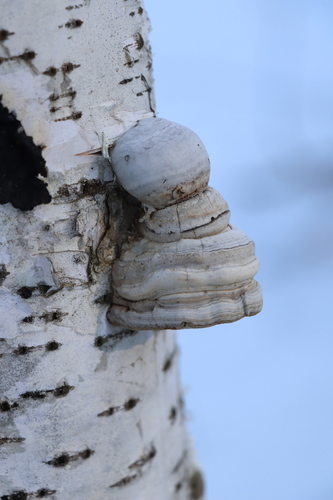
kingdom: Fungi
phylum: Basidiomycota
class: Agaricomycetes
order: Polyporales
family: Polyporaceae
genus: Fomes
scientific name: Fomes fomentarius
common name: Hoof fungus
